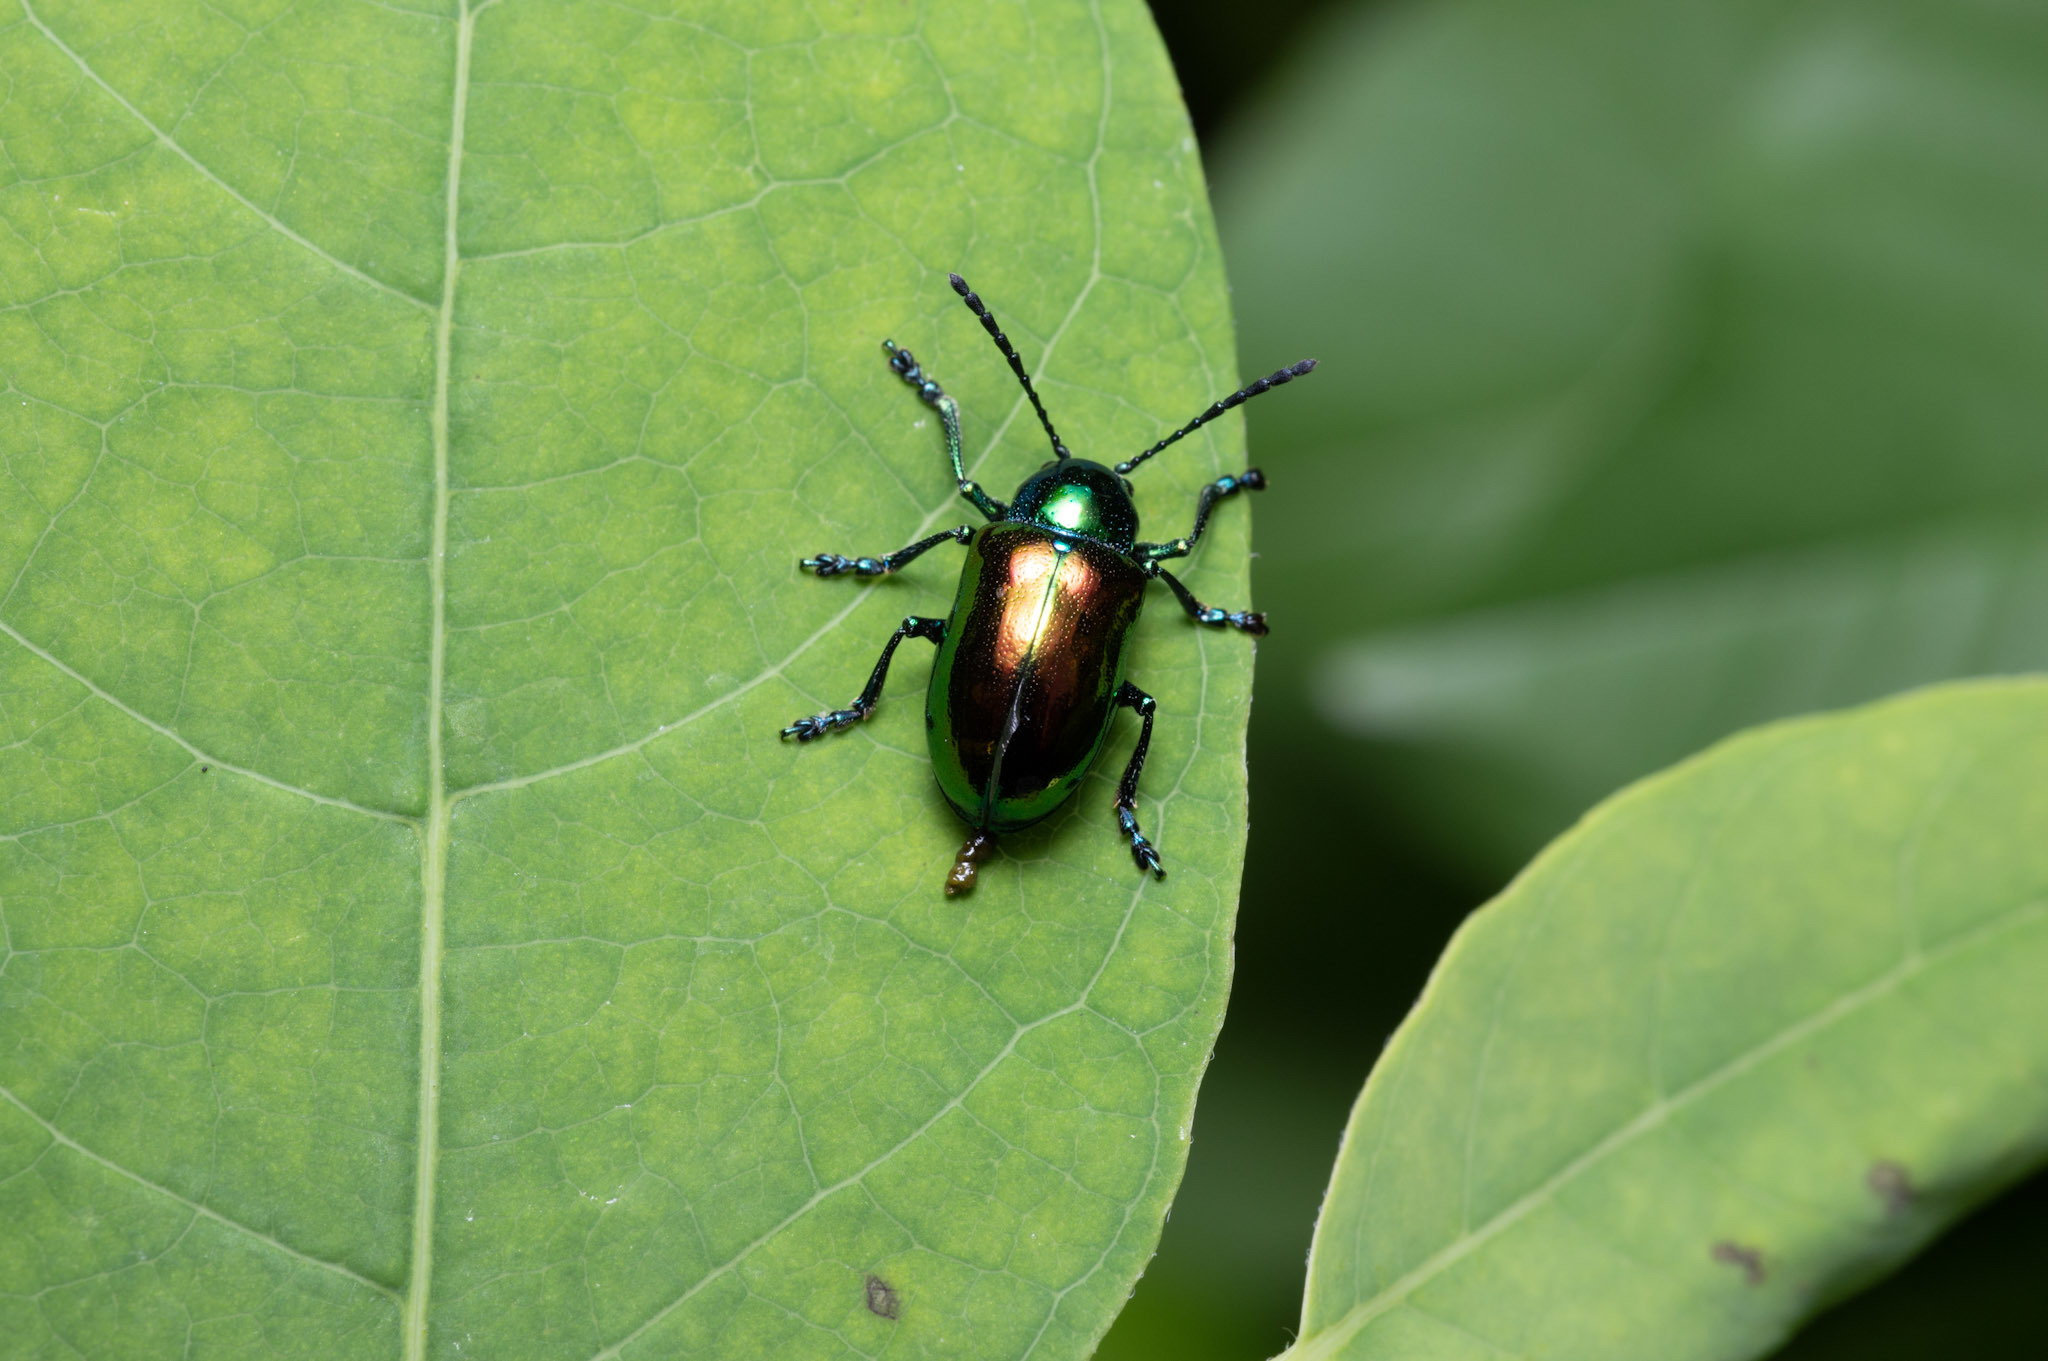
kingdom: Animalia
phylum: Arthropoda
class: Insecta
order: Coleoptera
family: Chrysomelidae
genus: Chrysochus
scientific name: Chrysochus auratus
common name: Dogbane leaf beetle
